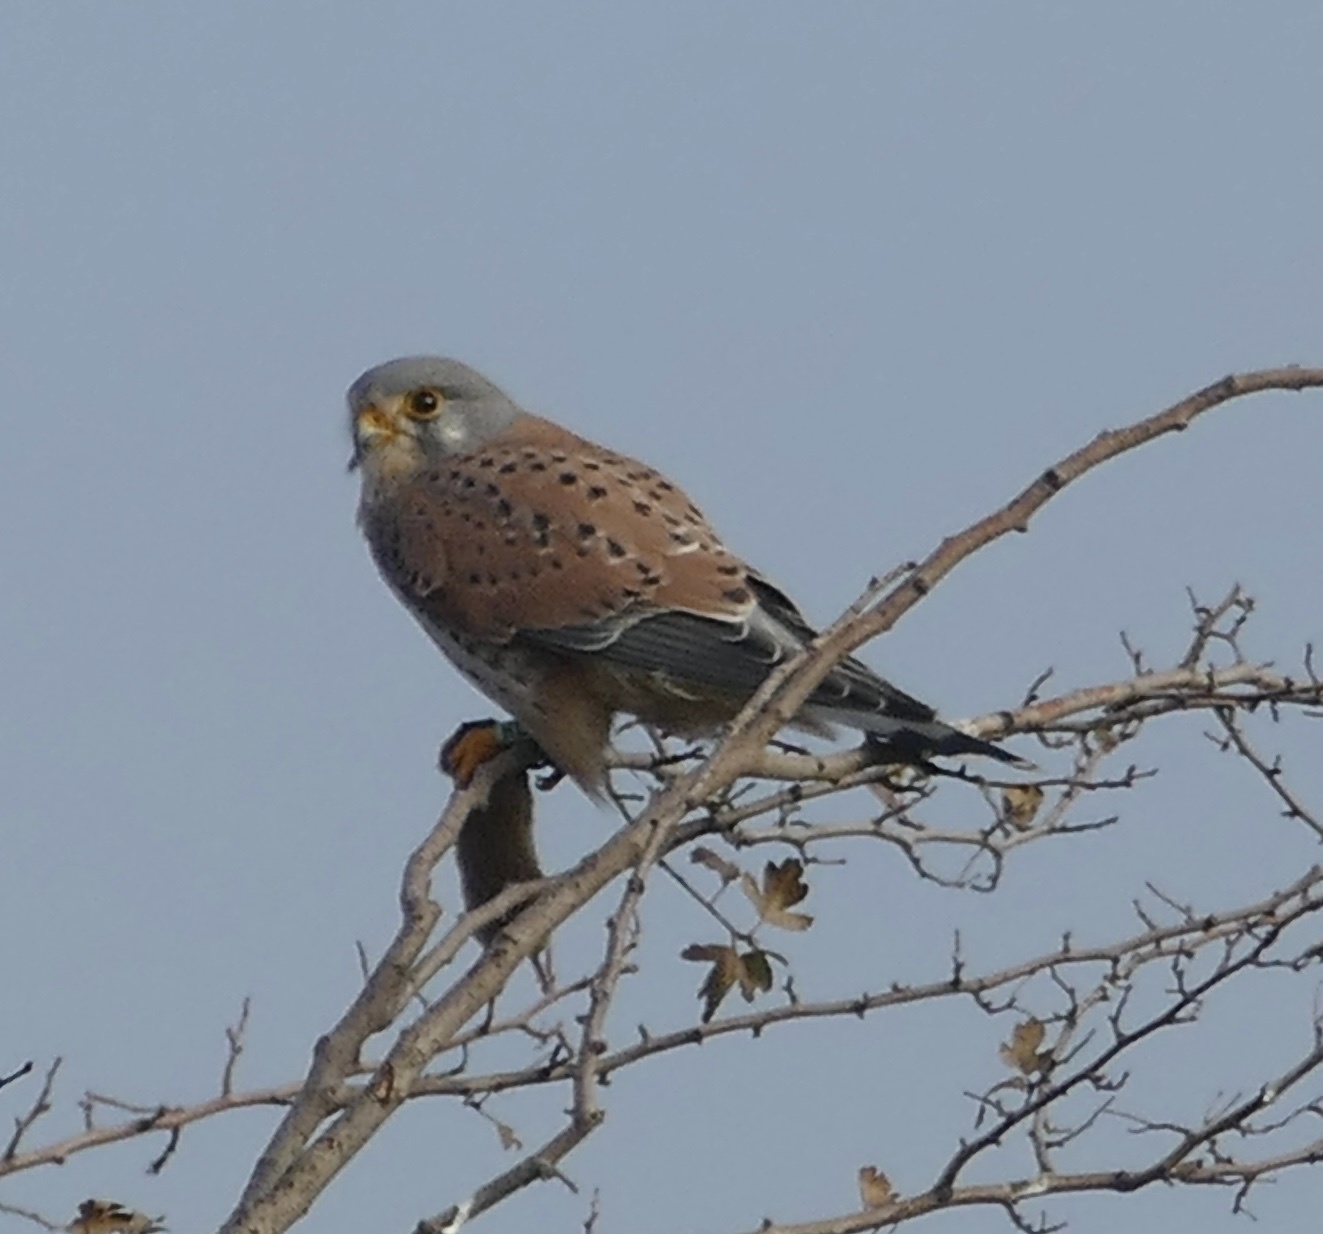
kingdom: Animalia
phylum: Chordata
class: Aves
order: Falconiformes
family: Falconidae
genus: Falco
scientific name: Falco tinnunculus
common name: Common kestrel
